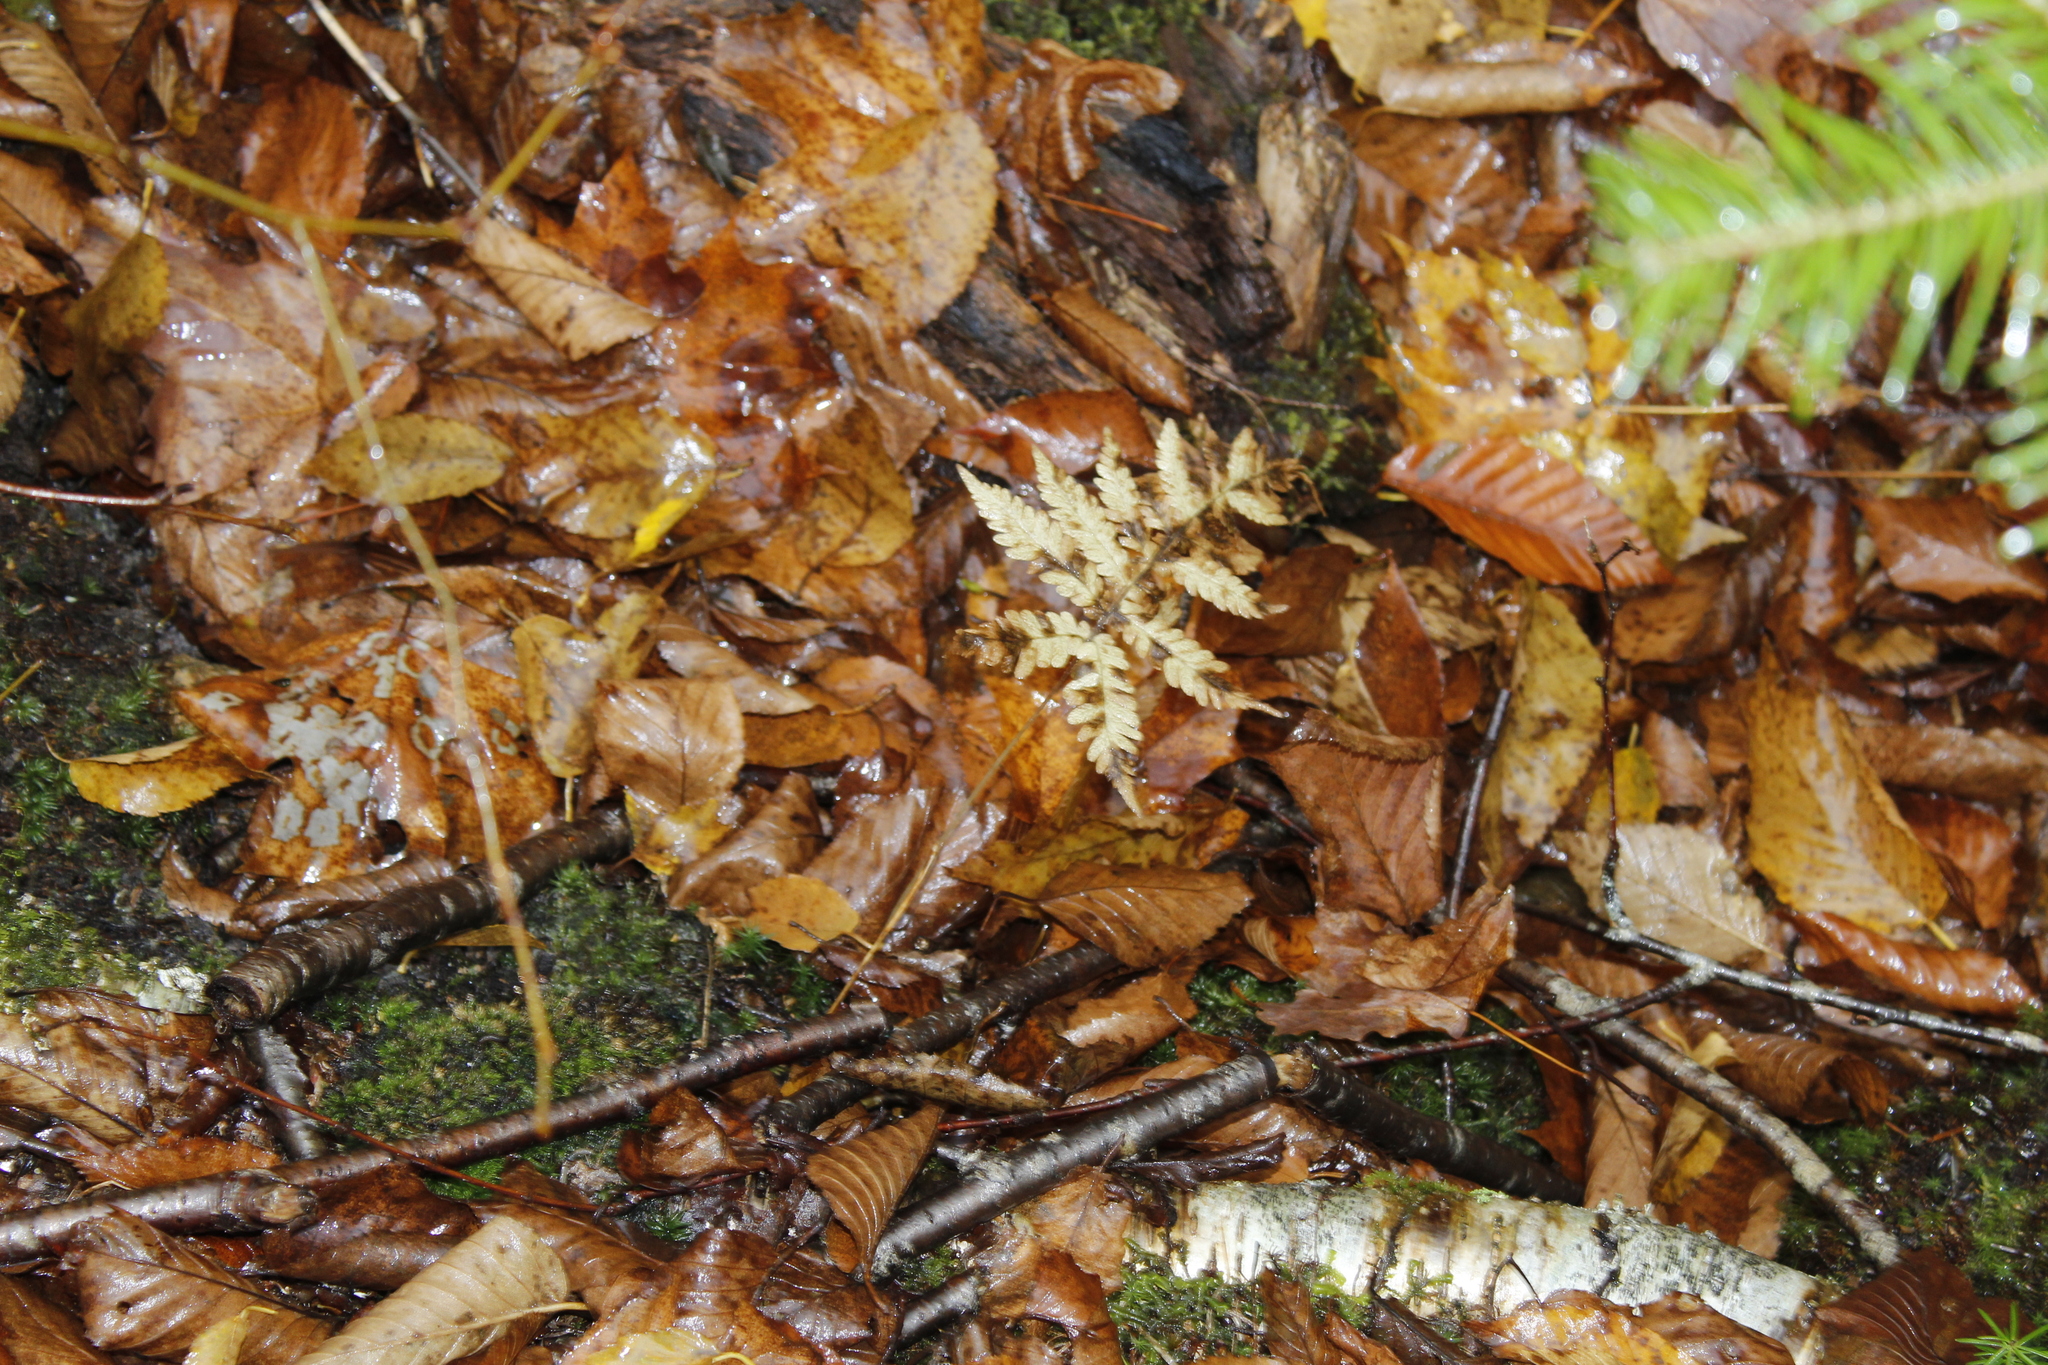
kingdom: Plantae
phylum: Tracheophyta
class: Polypodiopsida
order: Polypodiales
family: Thelypteridaceae
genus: Phegopteris
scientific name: Phegopteris connectilis
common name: Beech fern
